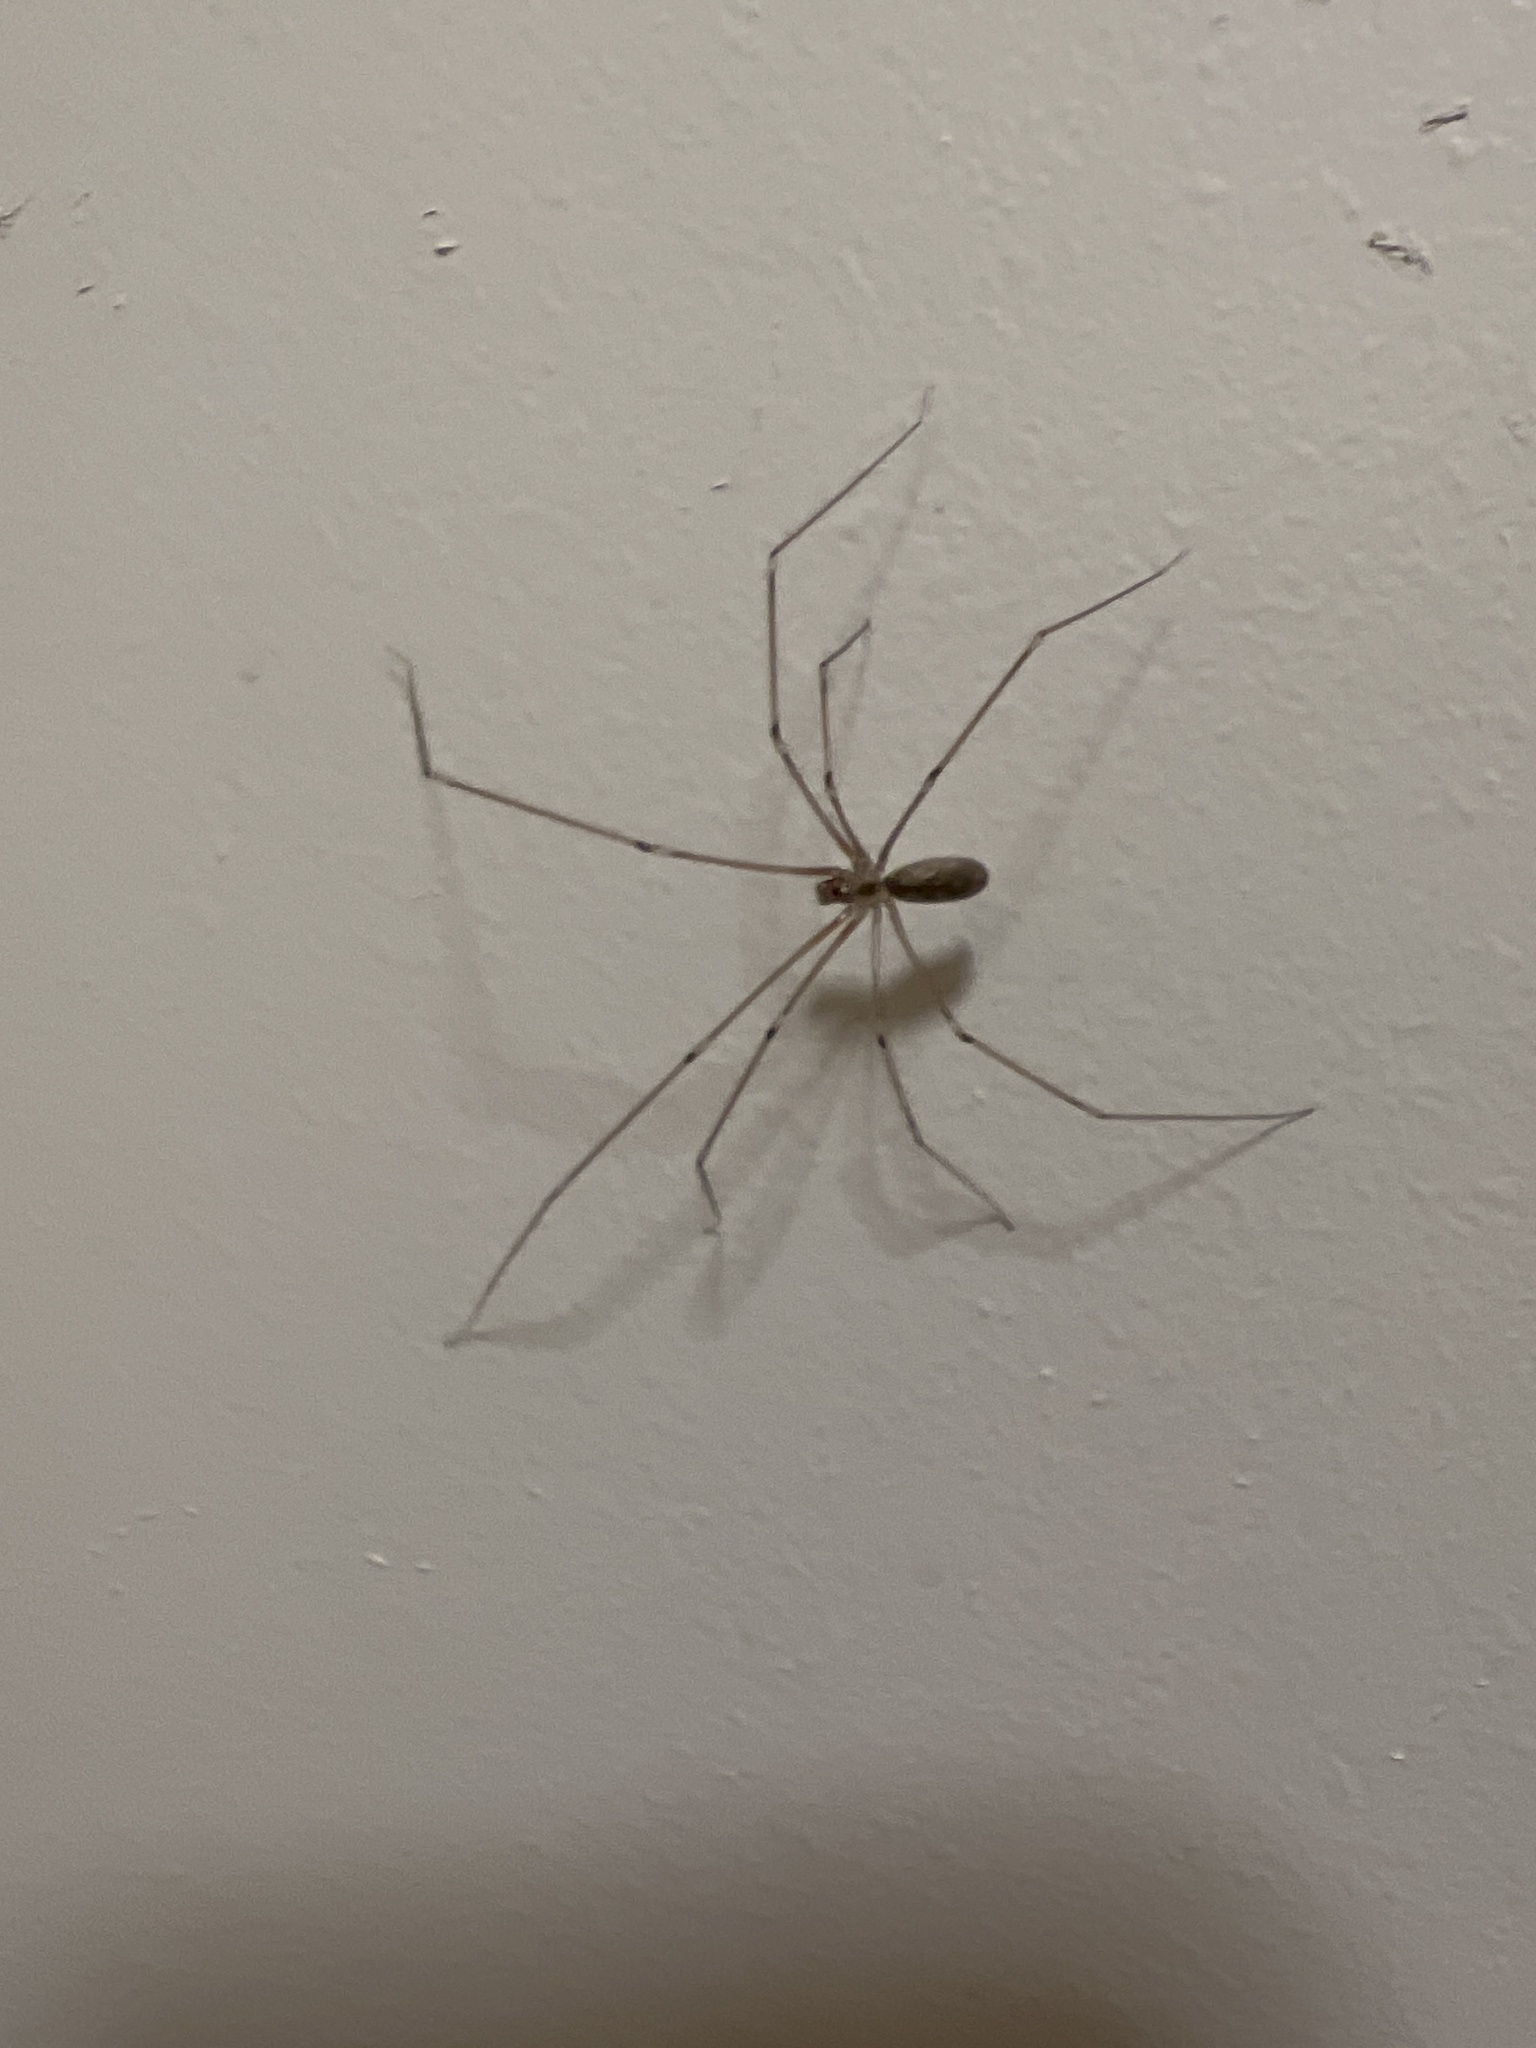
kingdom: Animalia
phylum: Arthropoda
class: Arachnida
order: Araneae
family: Pholcidae
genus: Pholcus
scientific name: Pholcus phalangioides
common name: Longbodied cellar spider
